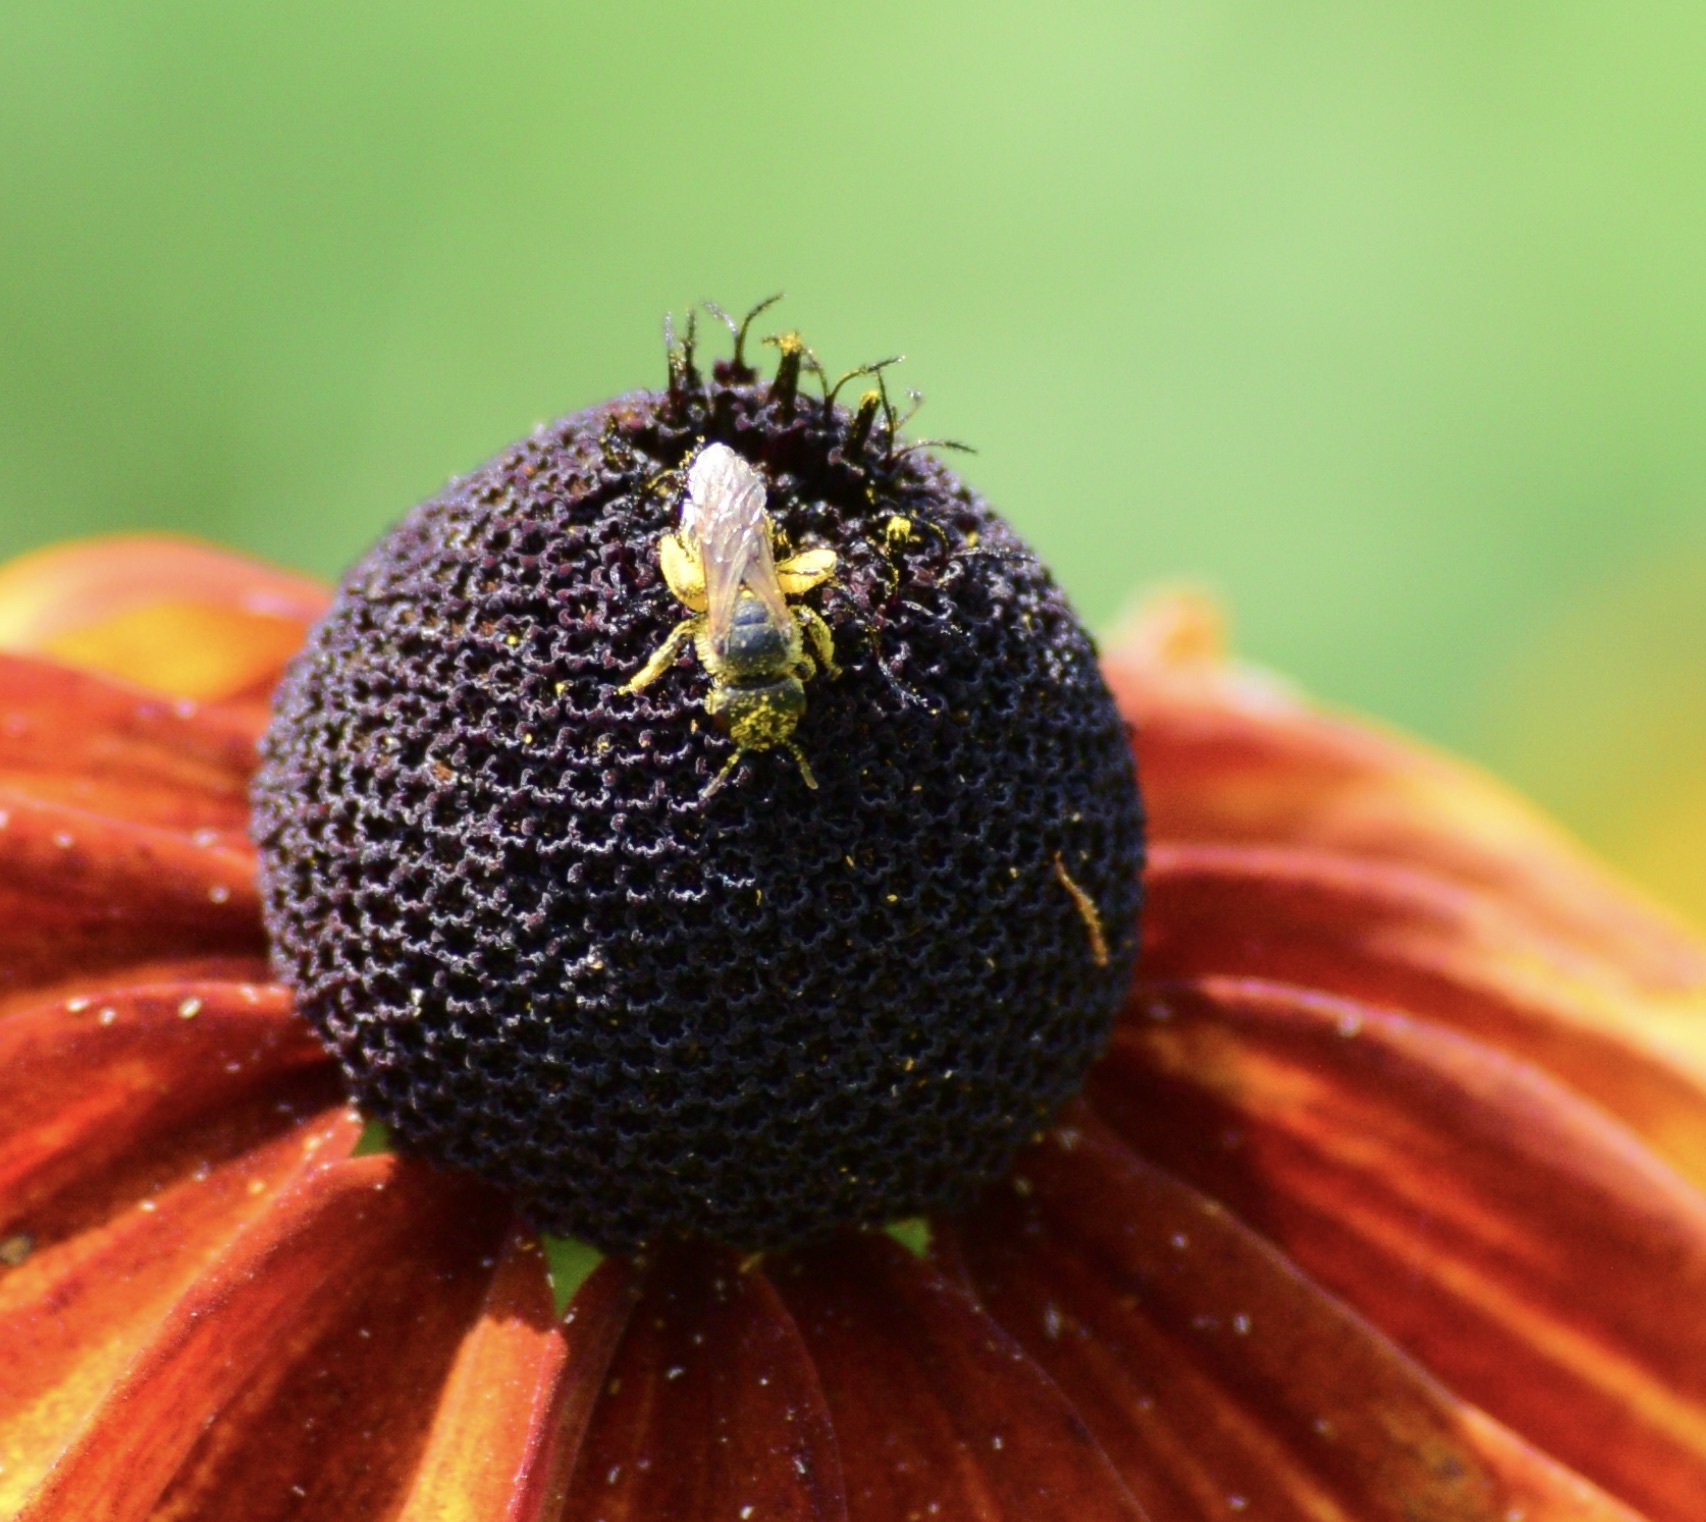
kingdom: Animalia
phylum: Arthropoda
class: Insecta
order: Hymenoptera
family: Halictidae
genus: Halictus
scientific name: Halictus ligatus
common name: Ligated furrow bee
